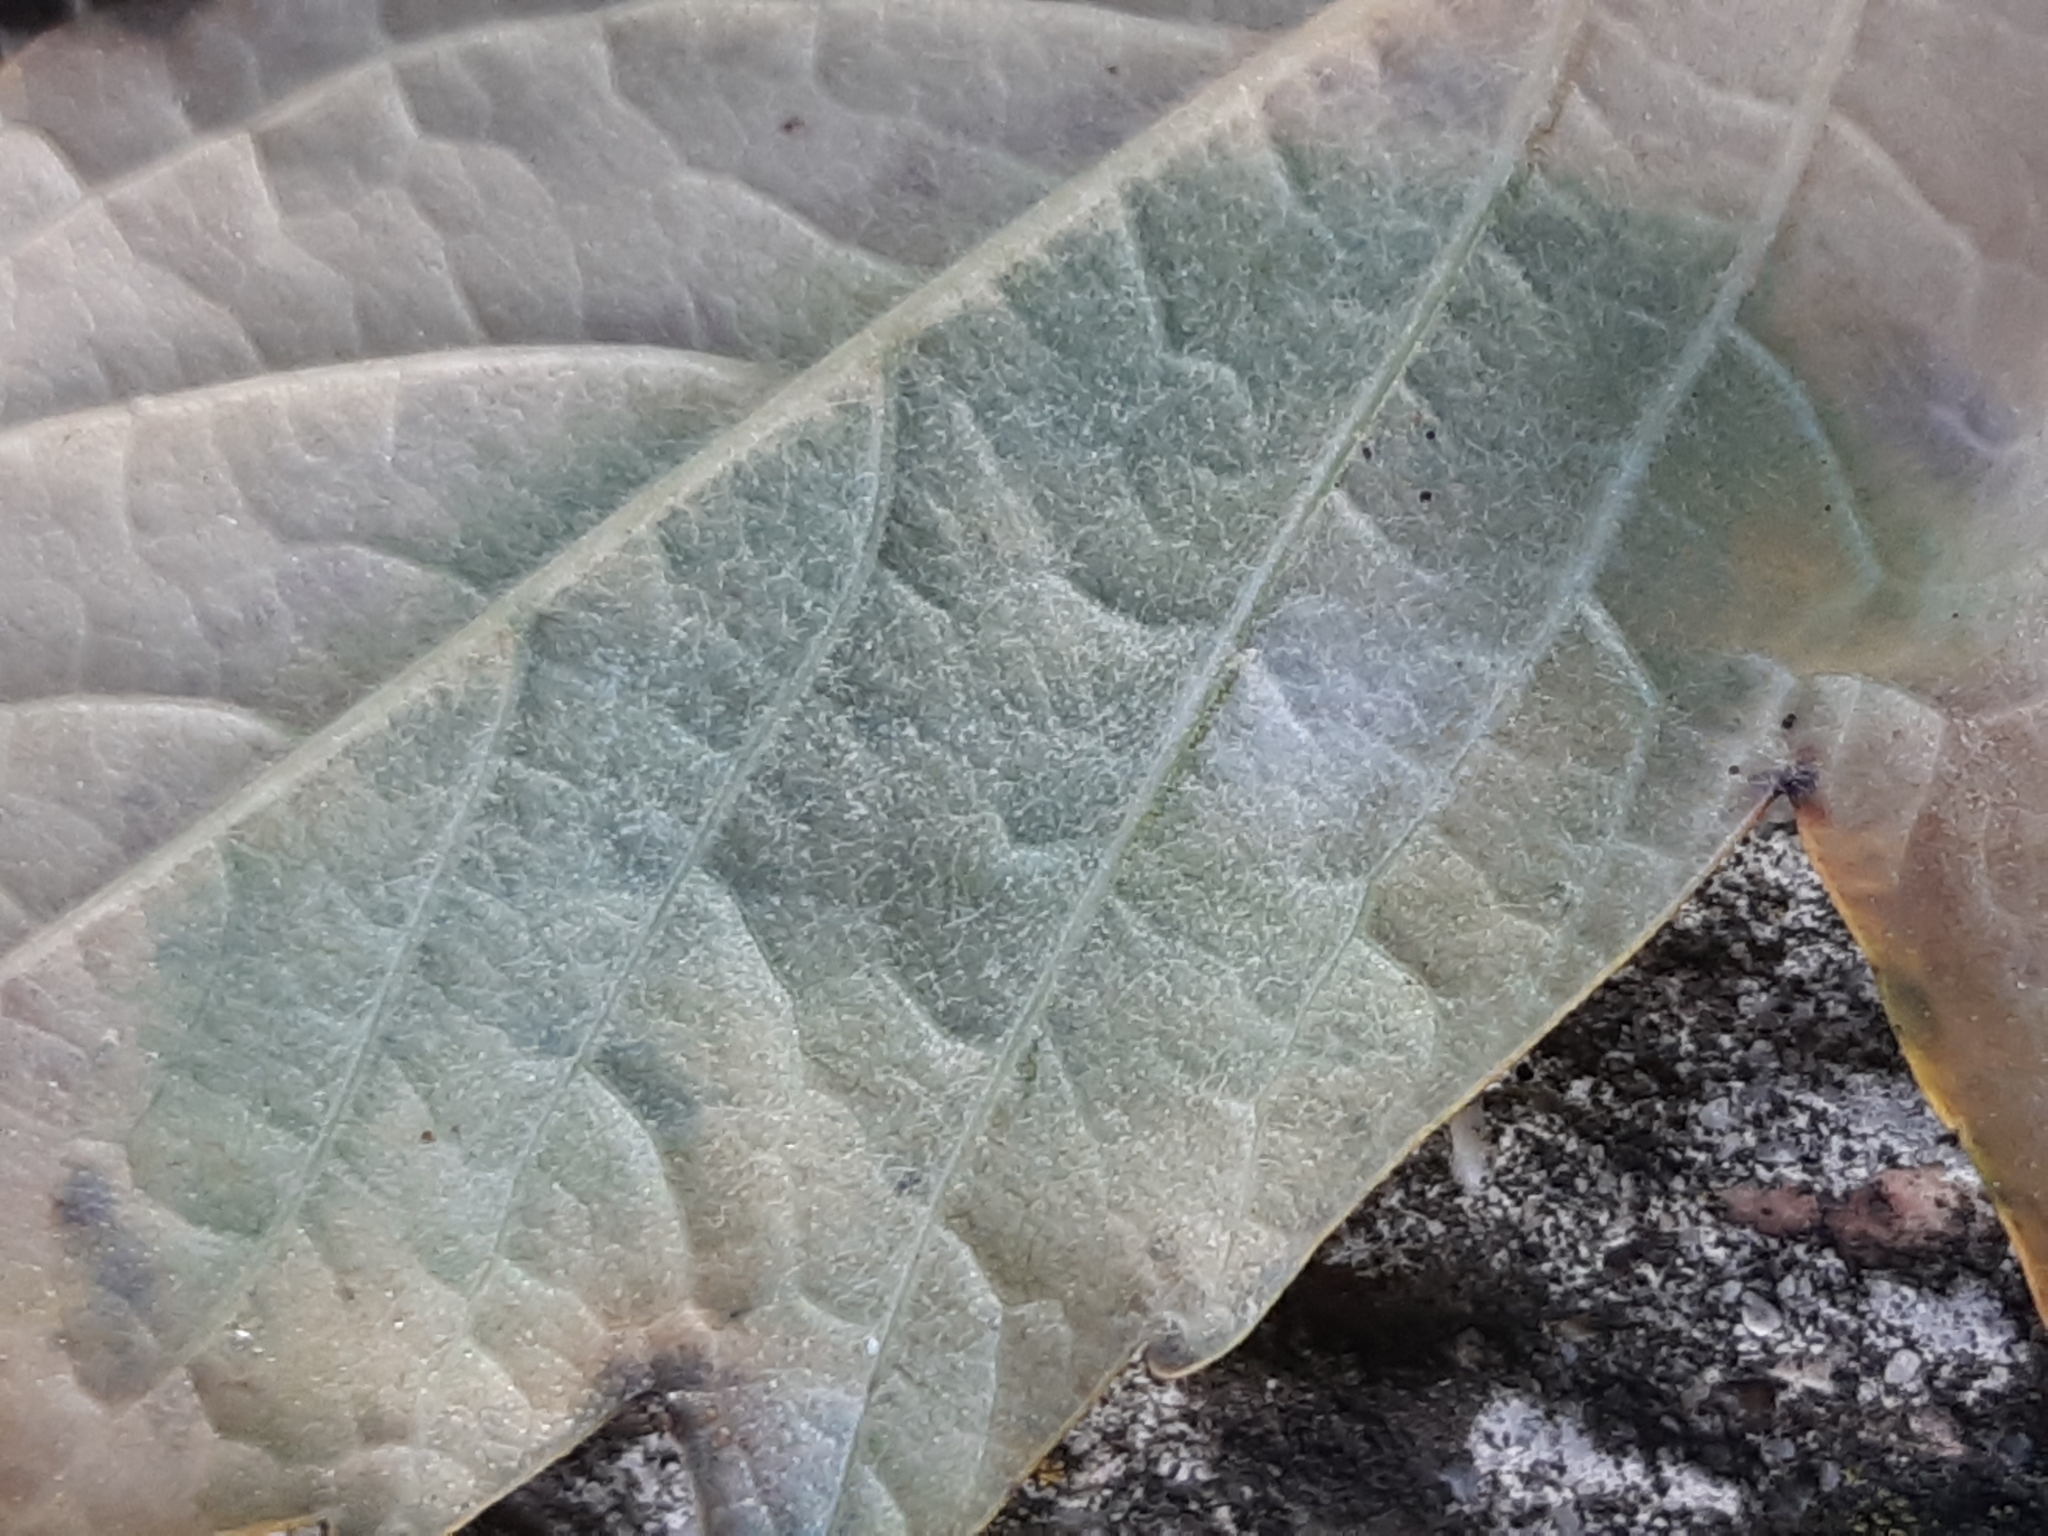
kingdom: Fungi
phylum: Ascomycota
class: Leotiomycetes
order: Helotiales
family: Erysiphaceae
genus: Sawadaea
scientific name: Sawadaea bicornis
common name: Maple mildew
